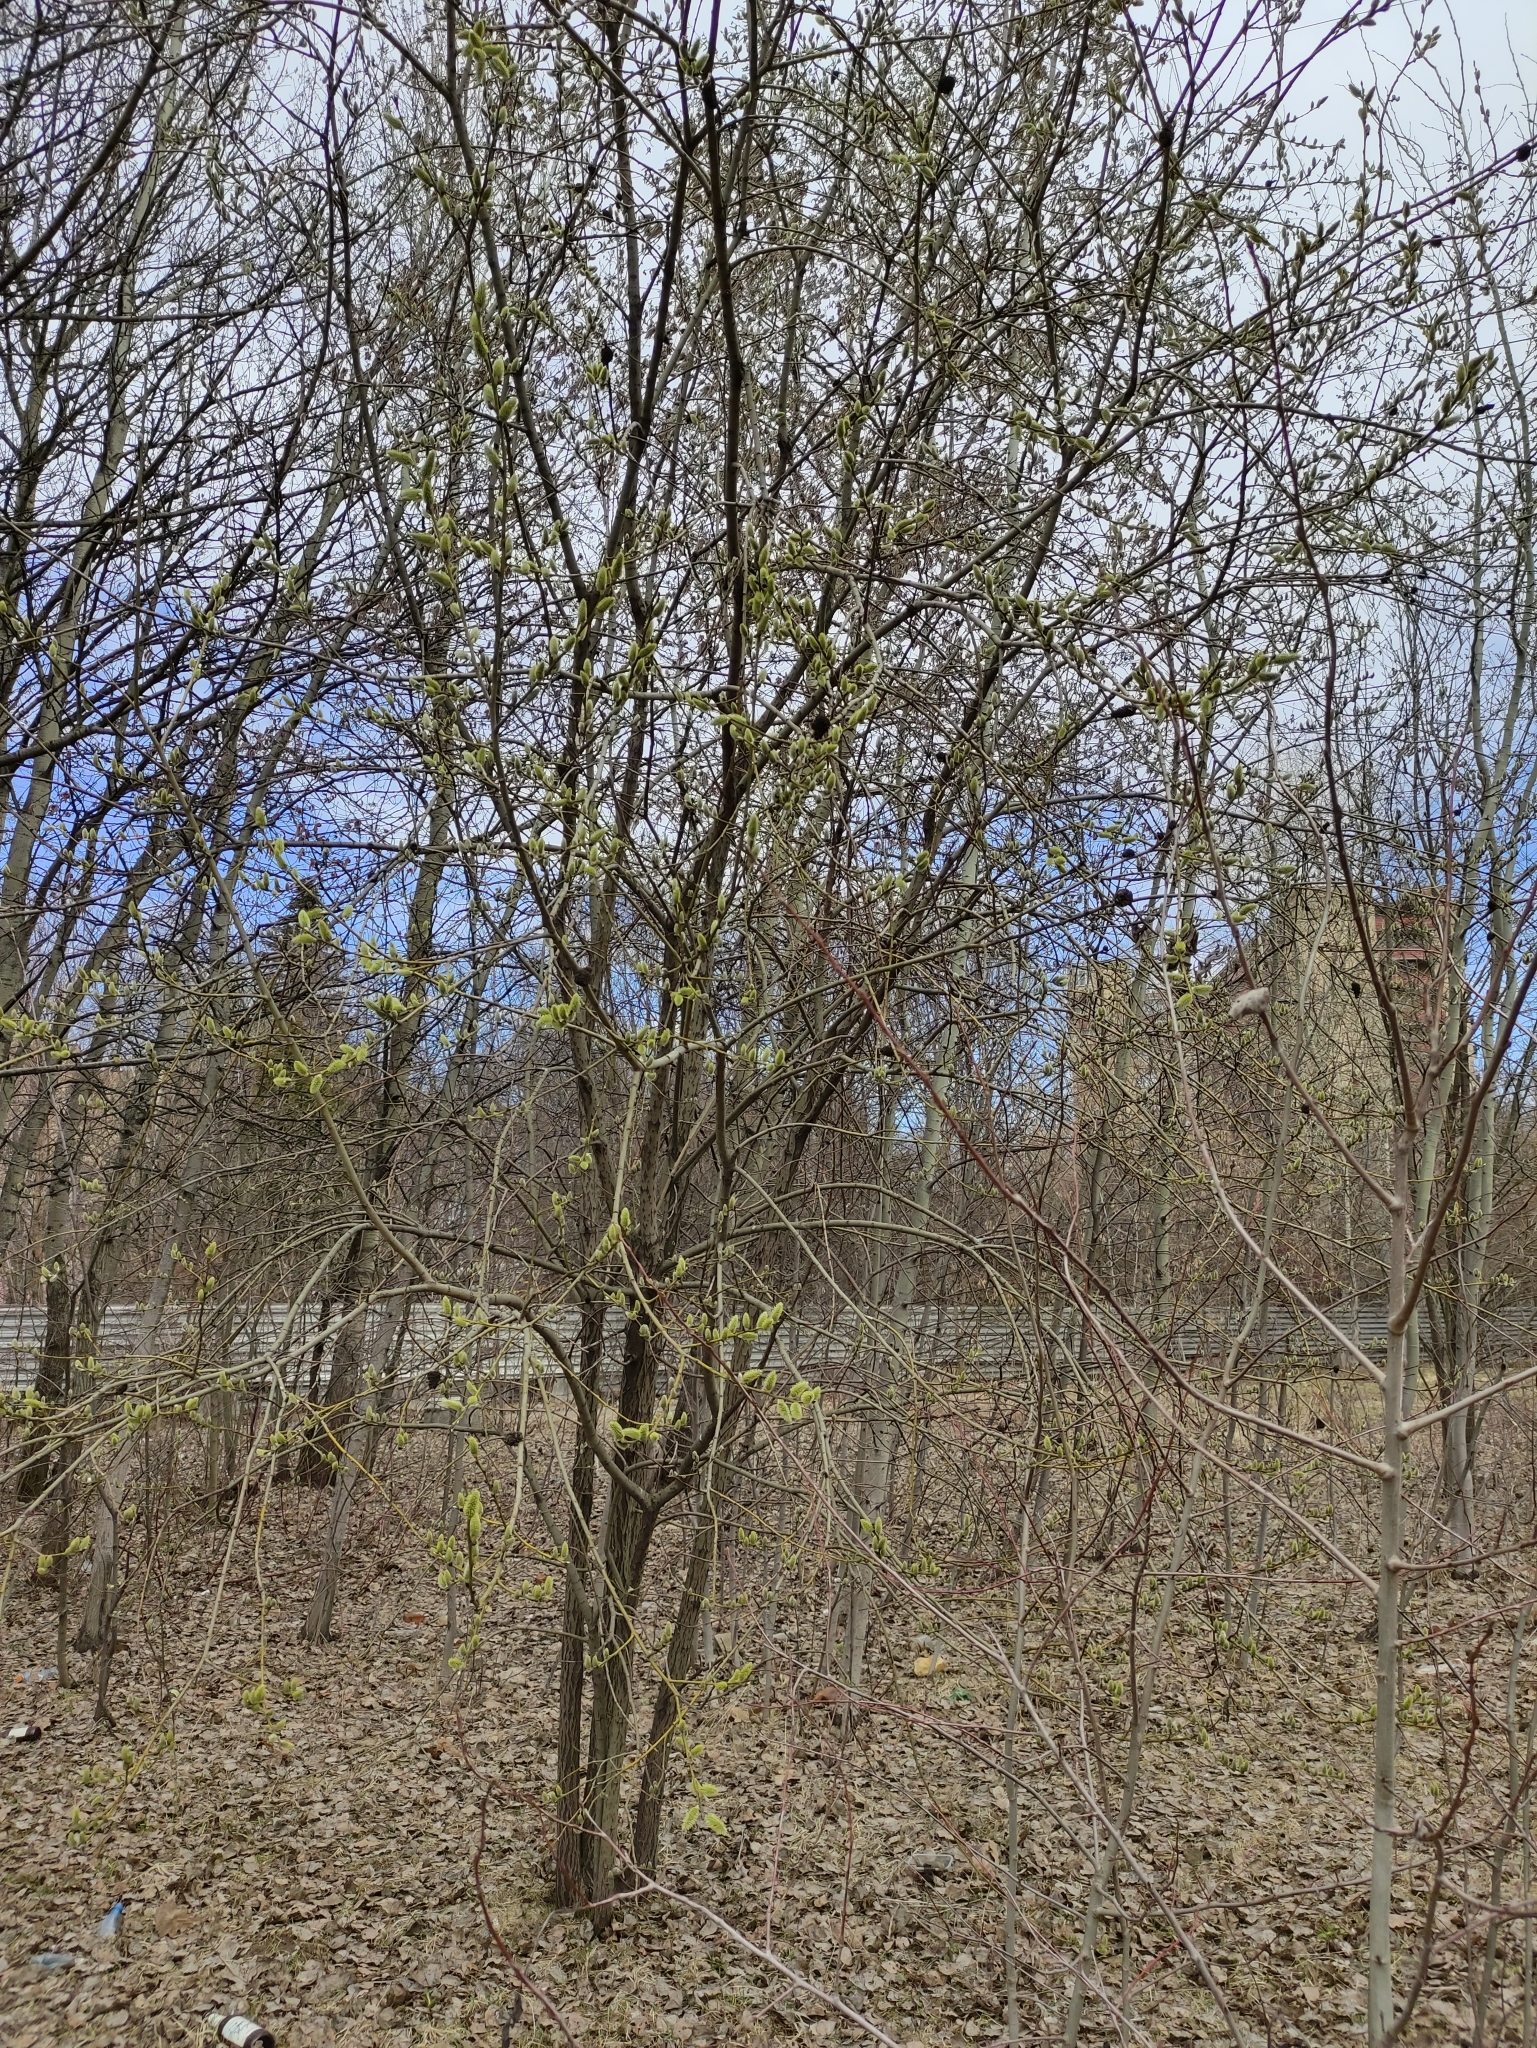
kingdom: Plantae
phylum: Tracheophyta
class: Magnoliopsida
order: Malpighiales
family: Salicaceae
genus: Salix
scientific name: Salix caprea
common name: Goat willow
